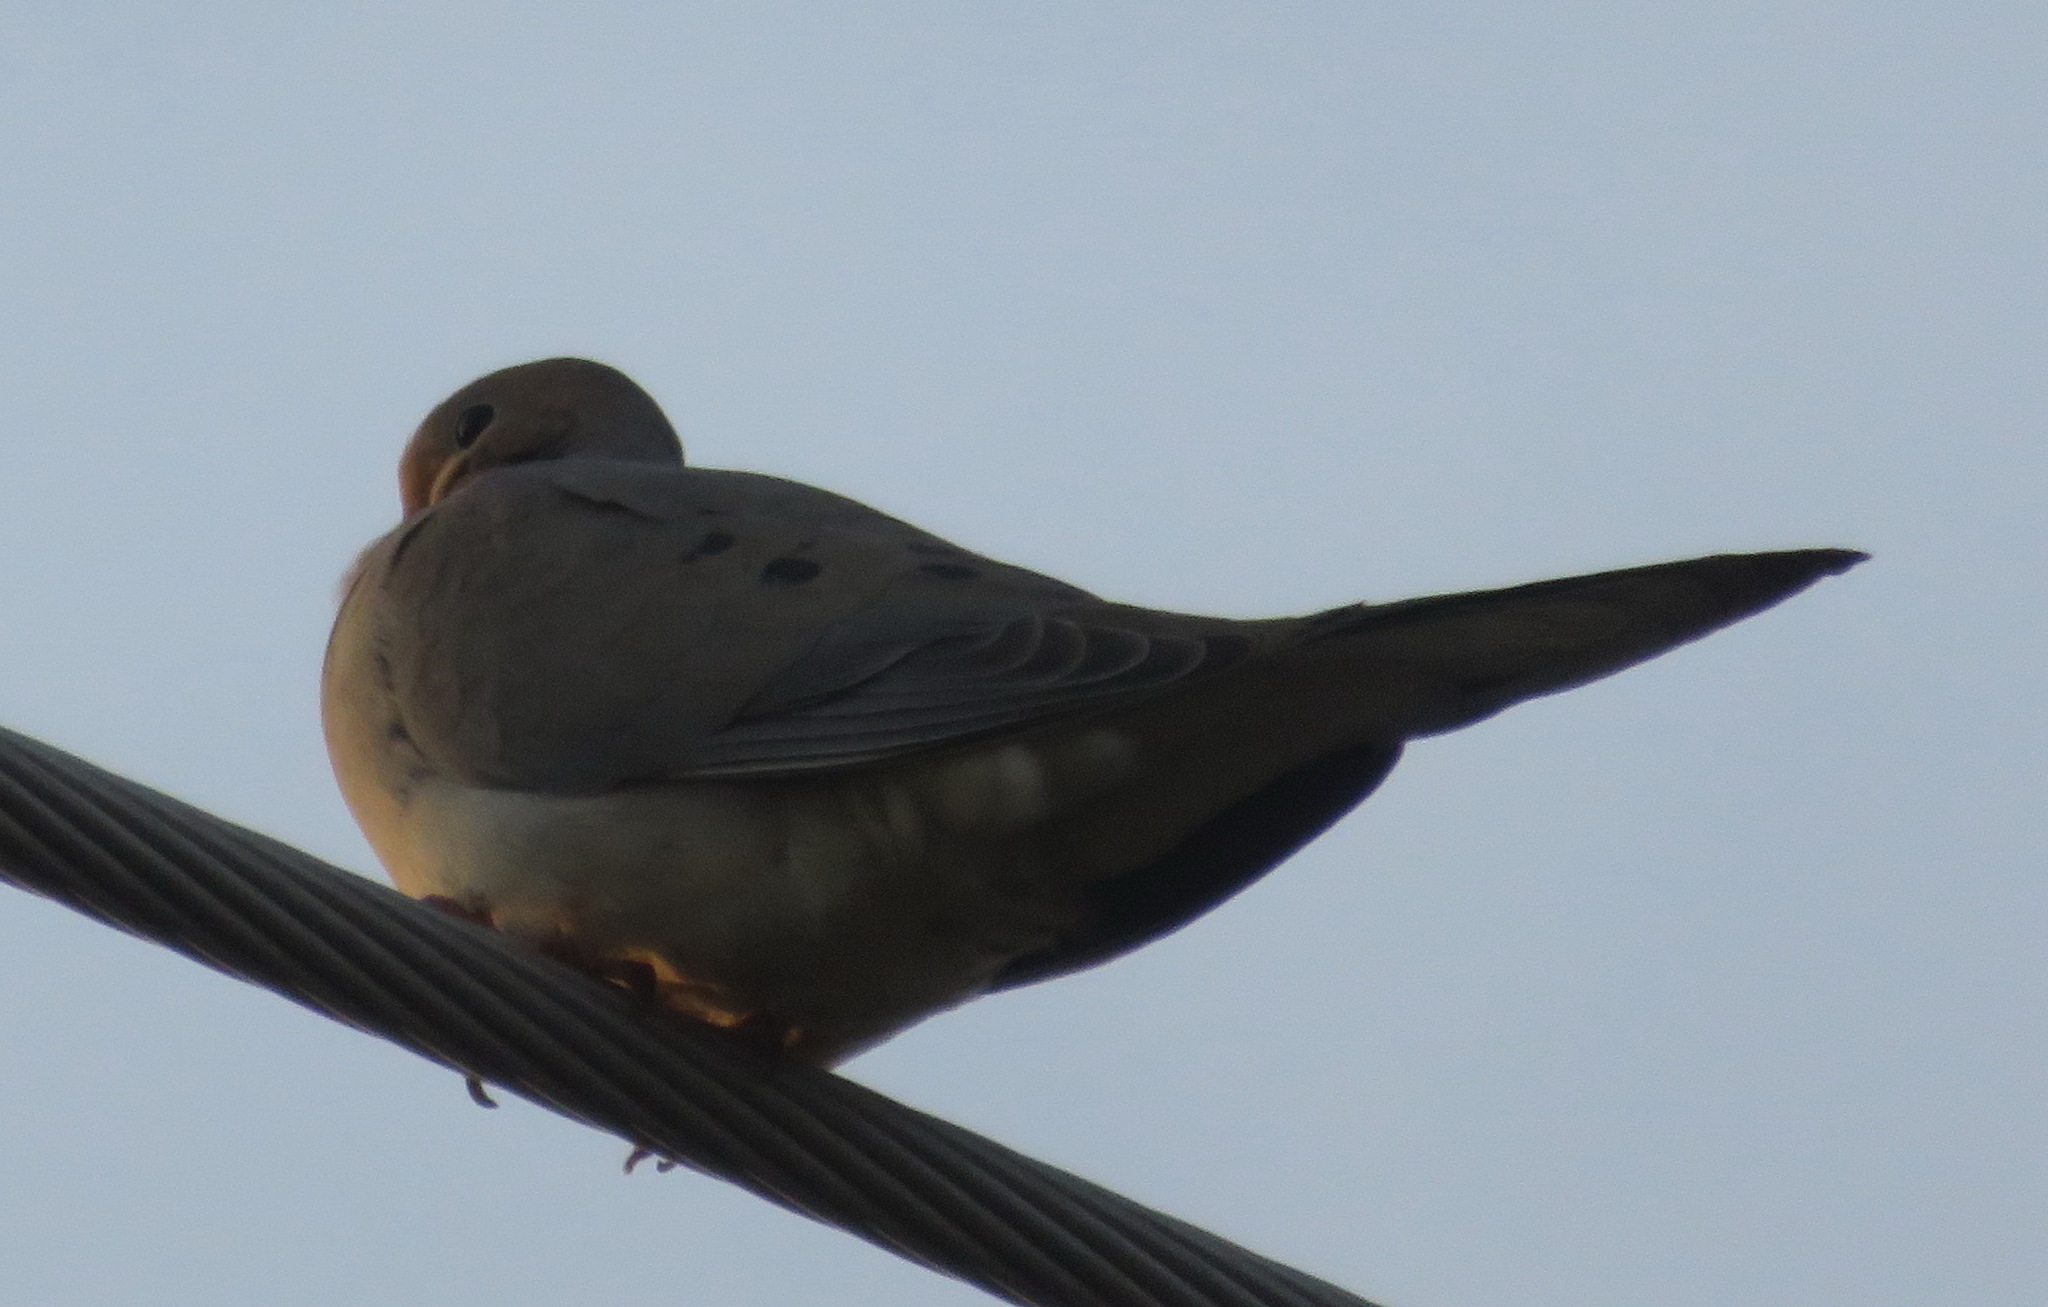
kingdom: Animalia
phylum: Chordata
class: Aves
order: Columbiformes
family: Columbidae
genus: Zenaida
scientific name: Zenaida macroura
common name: Mourning dove
